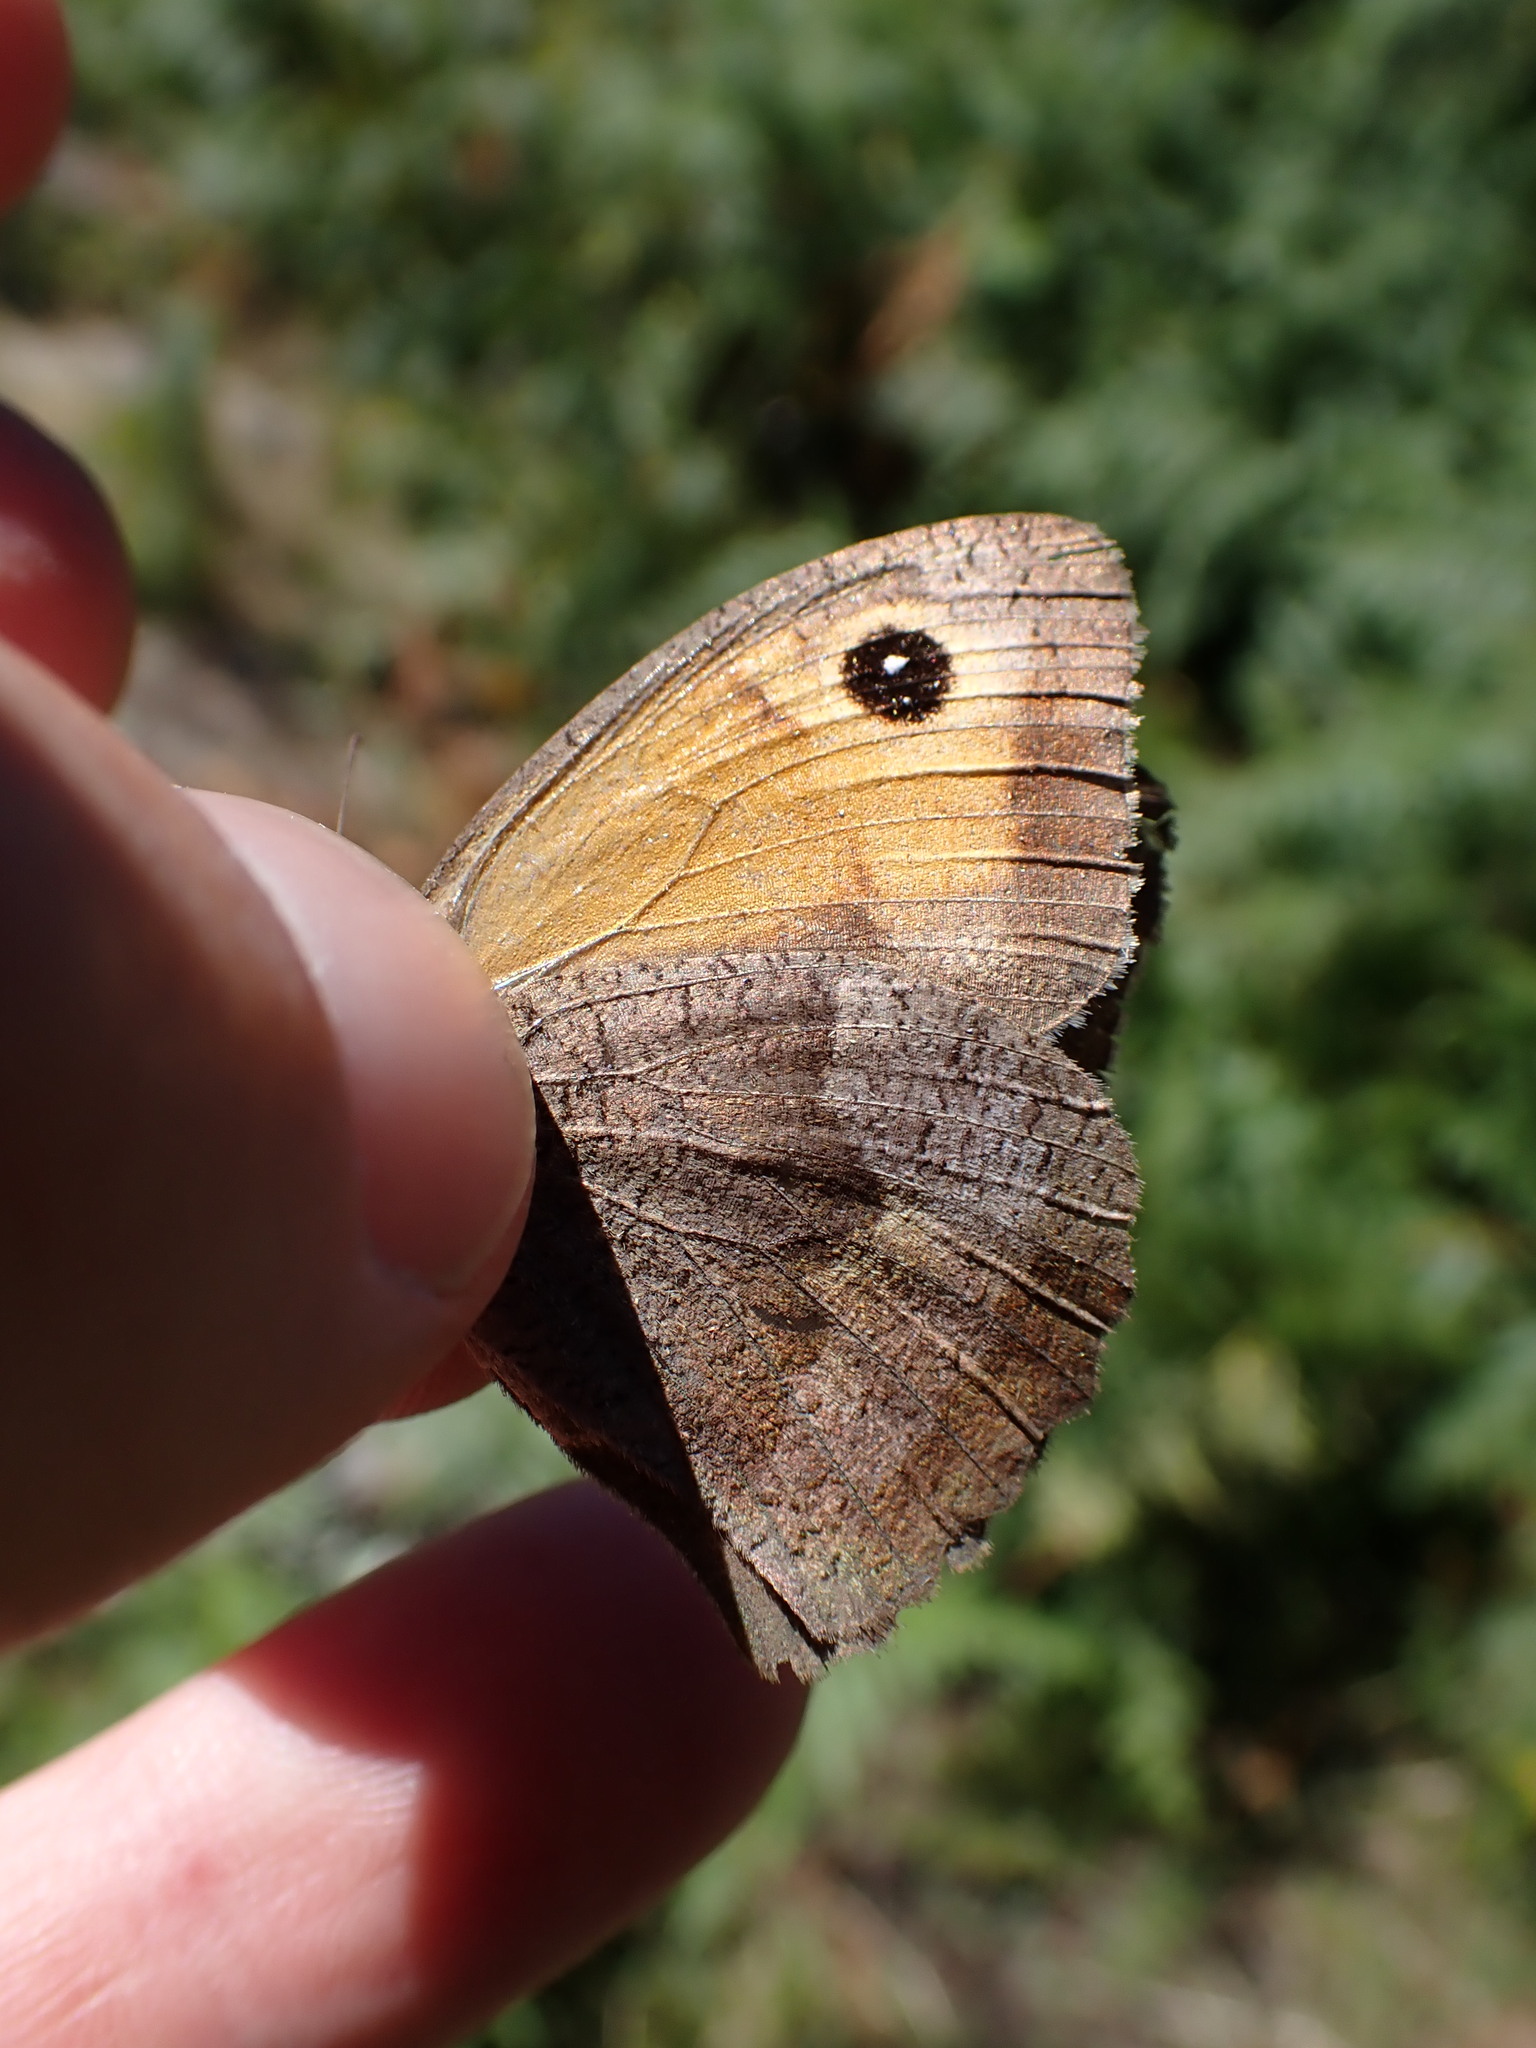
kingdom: Animalia
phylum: Arthropoda
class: Insecta
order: Lepidoptera
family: Nymphalidae
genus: Maniola
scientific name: Maniola jurtina
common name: Meadow brown
